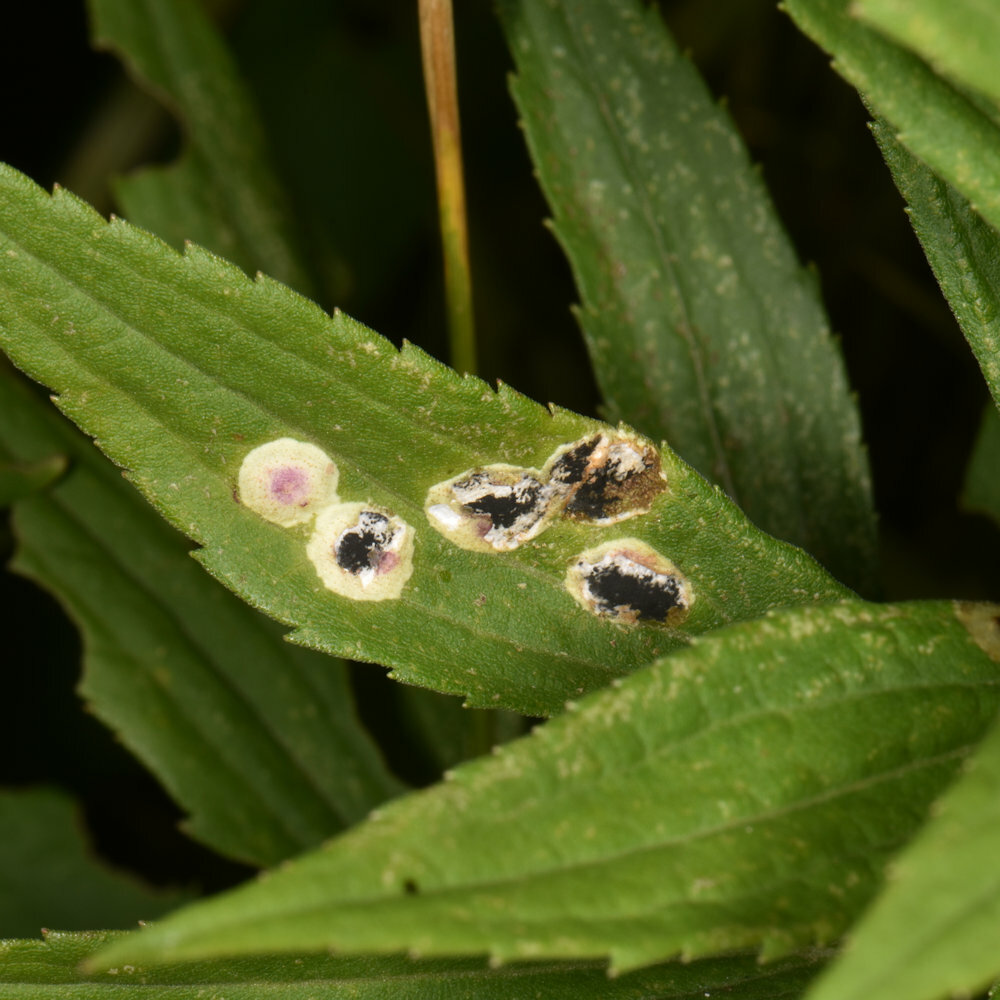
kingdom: Animalia
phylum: Arthropoda
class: Insecta
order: Diptera
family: Cecidomyiidae
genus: Asteromyia
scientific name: Asteromyia carbonifera
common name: Carbonifera goldenrod gall midge
